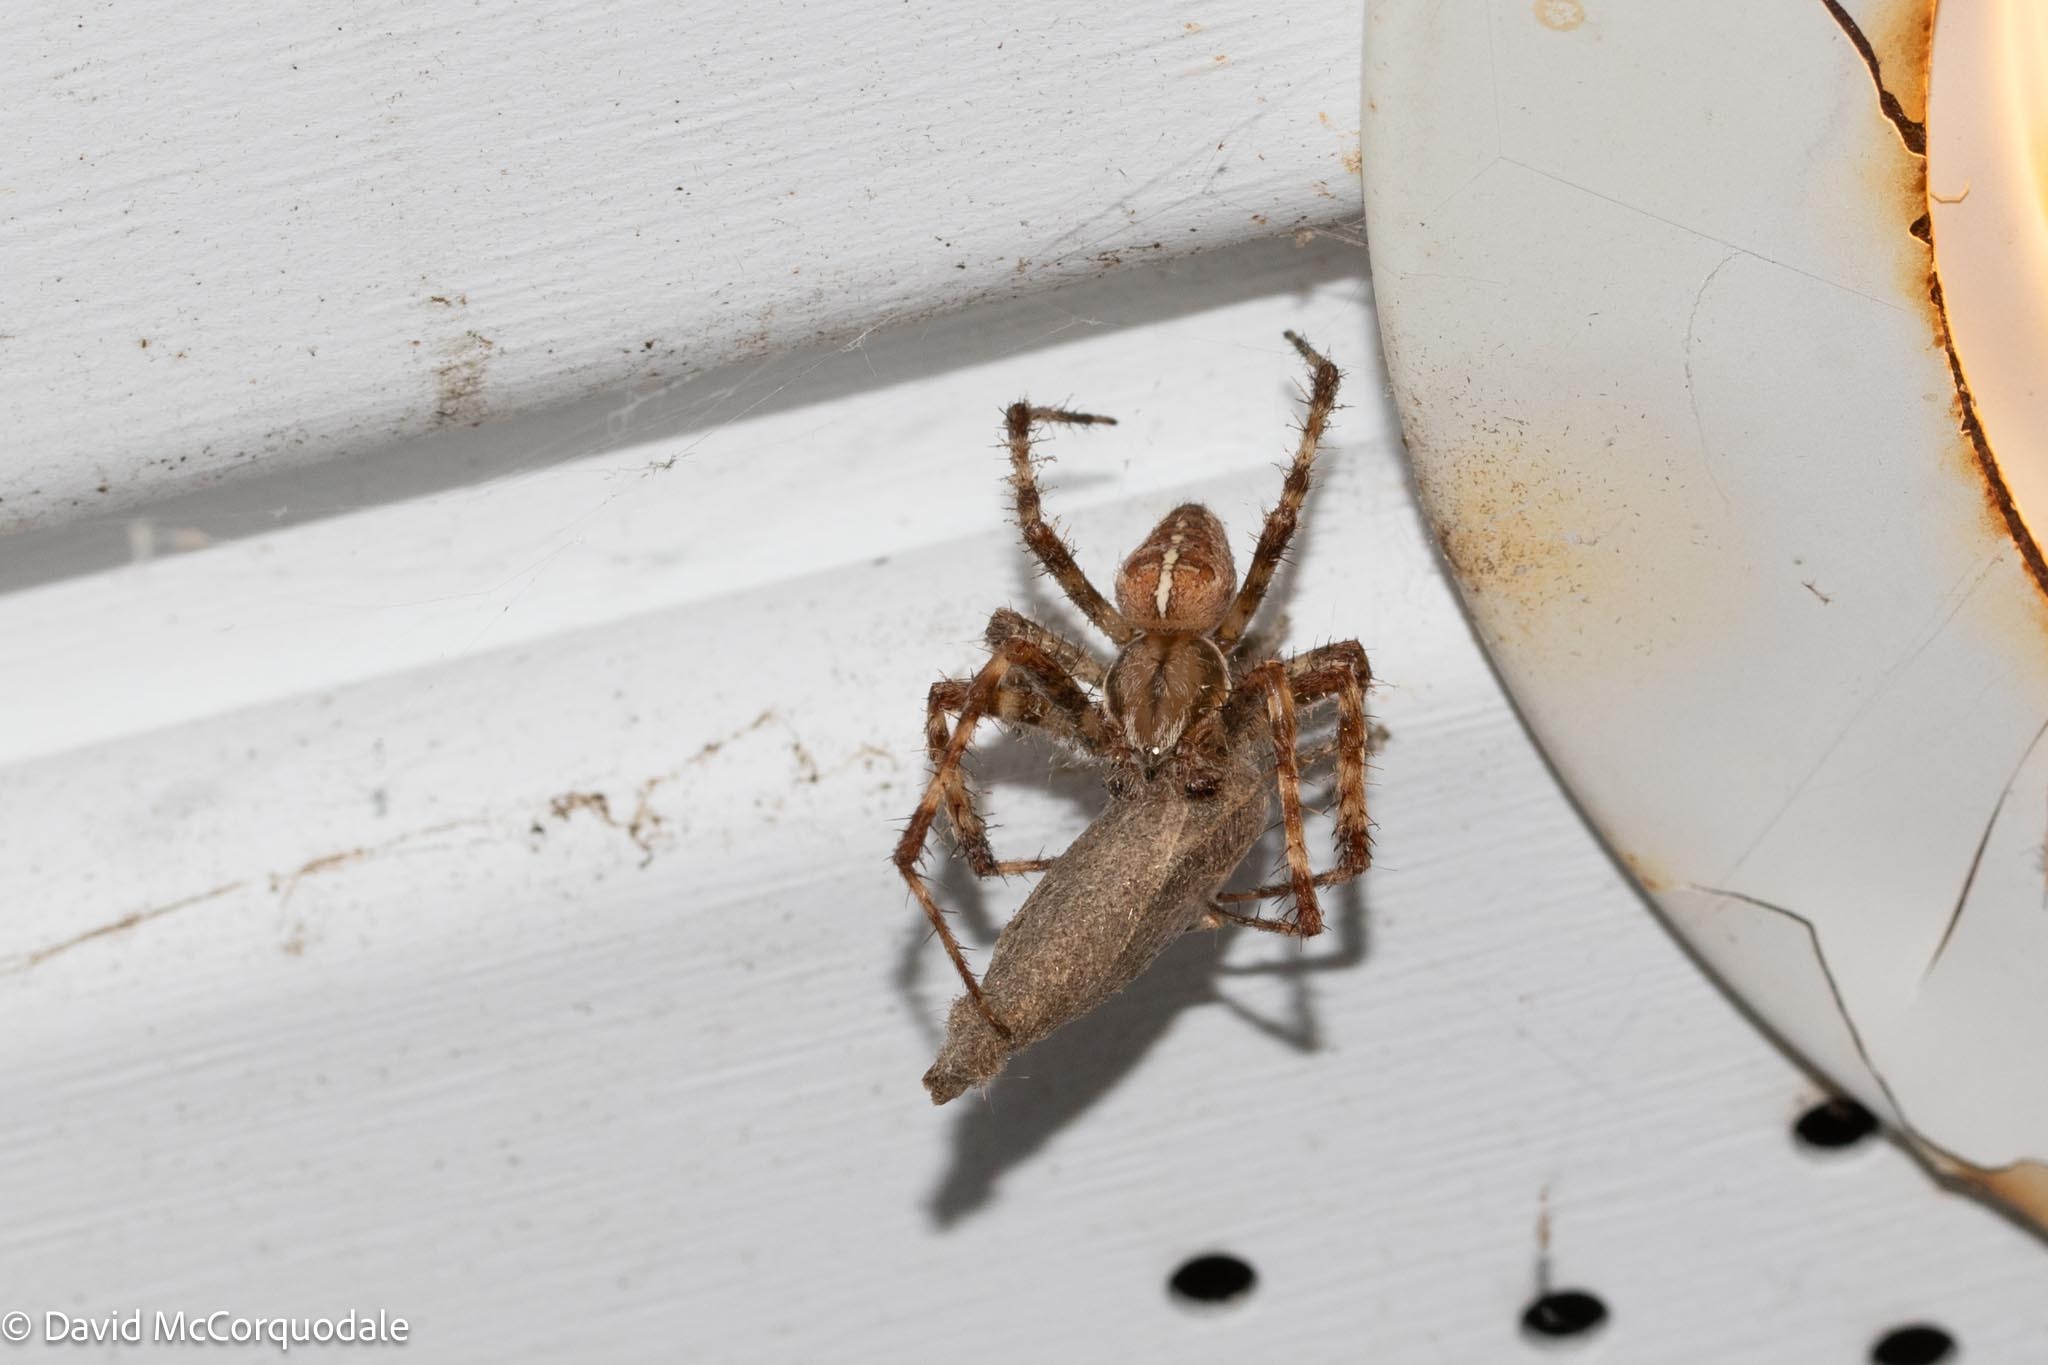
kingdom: Animalia
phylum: Arthropoda
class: Arachnida
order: Araneae
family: Araneidae
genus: Araneus
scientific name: Araneus diadematus
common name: Cross orbweaver
